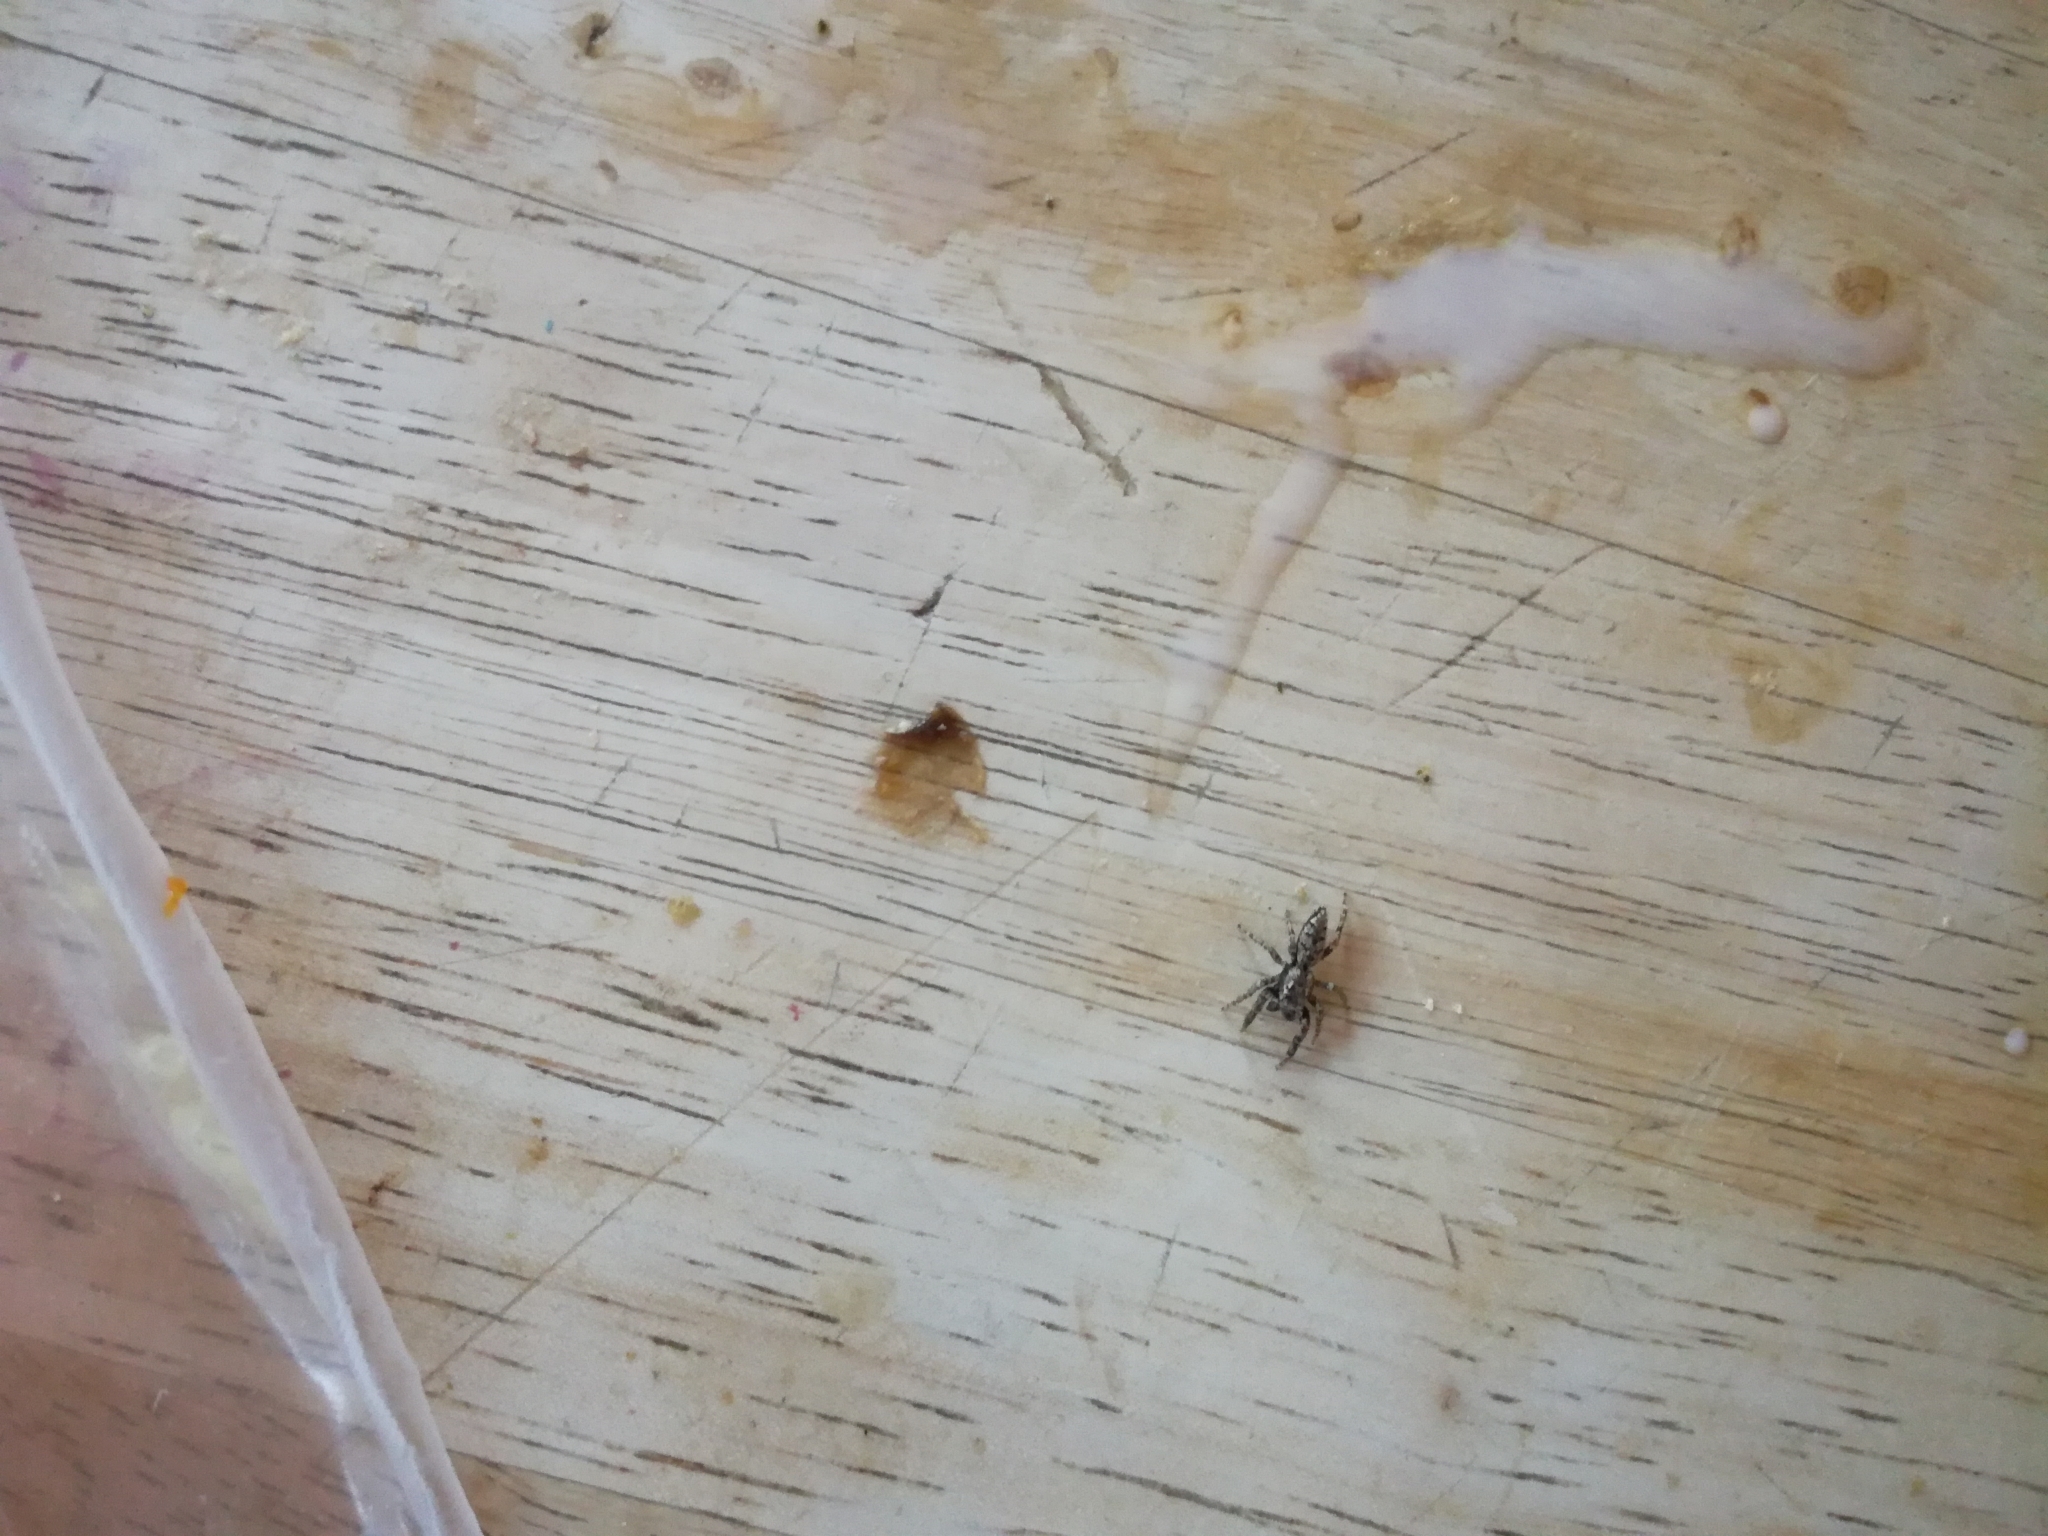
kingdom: Animalia
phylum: Arthropoda
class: Arachnida
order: Araneae
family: Salticidae
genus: Marpissa
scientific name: Marpissa muscosa
